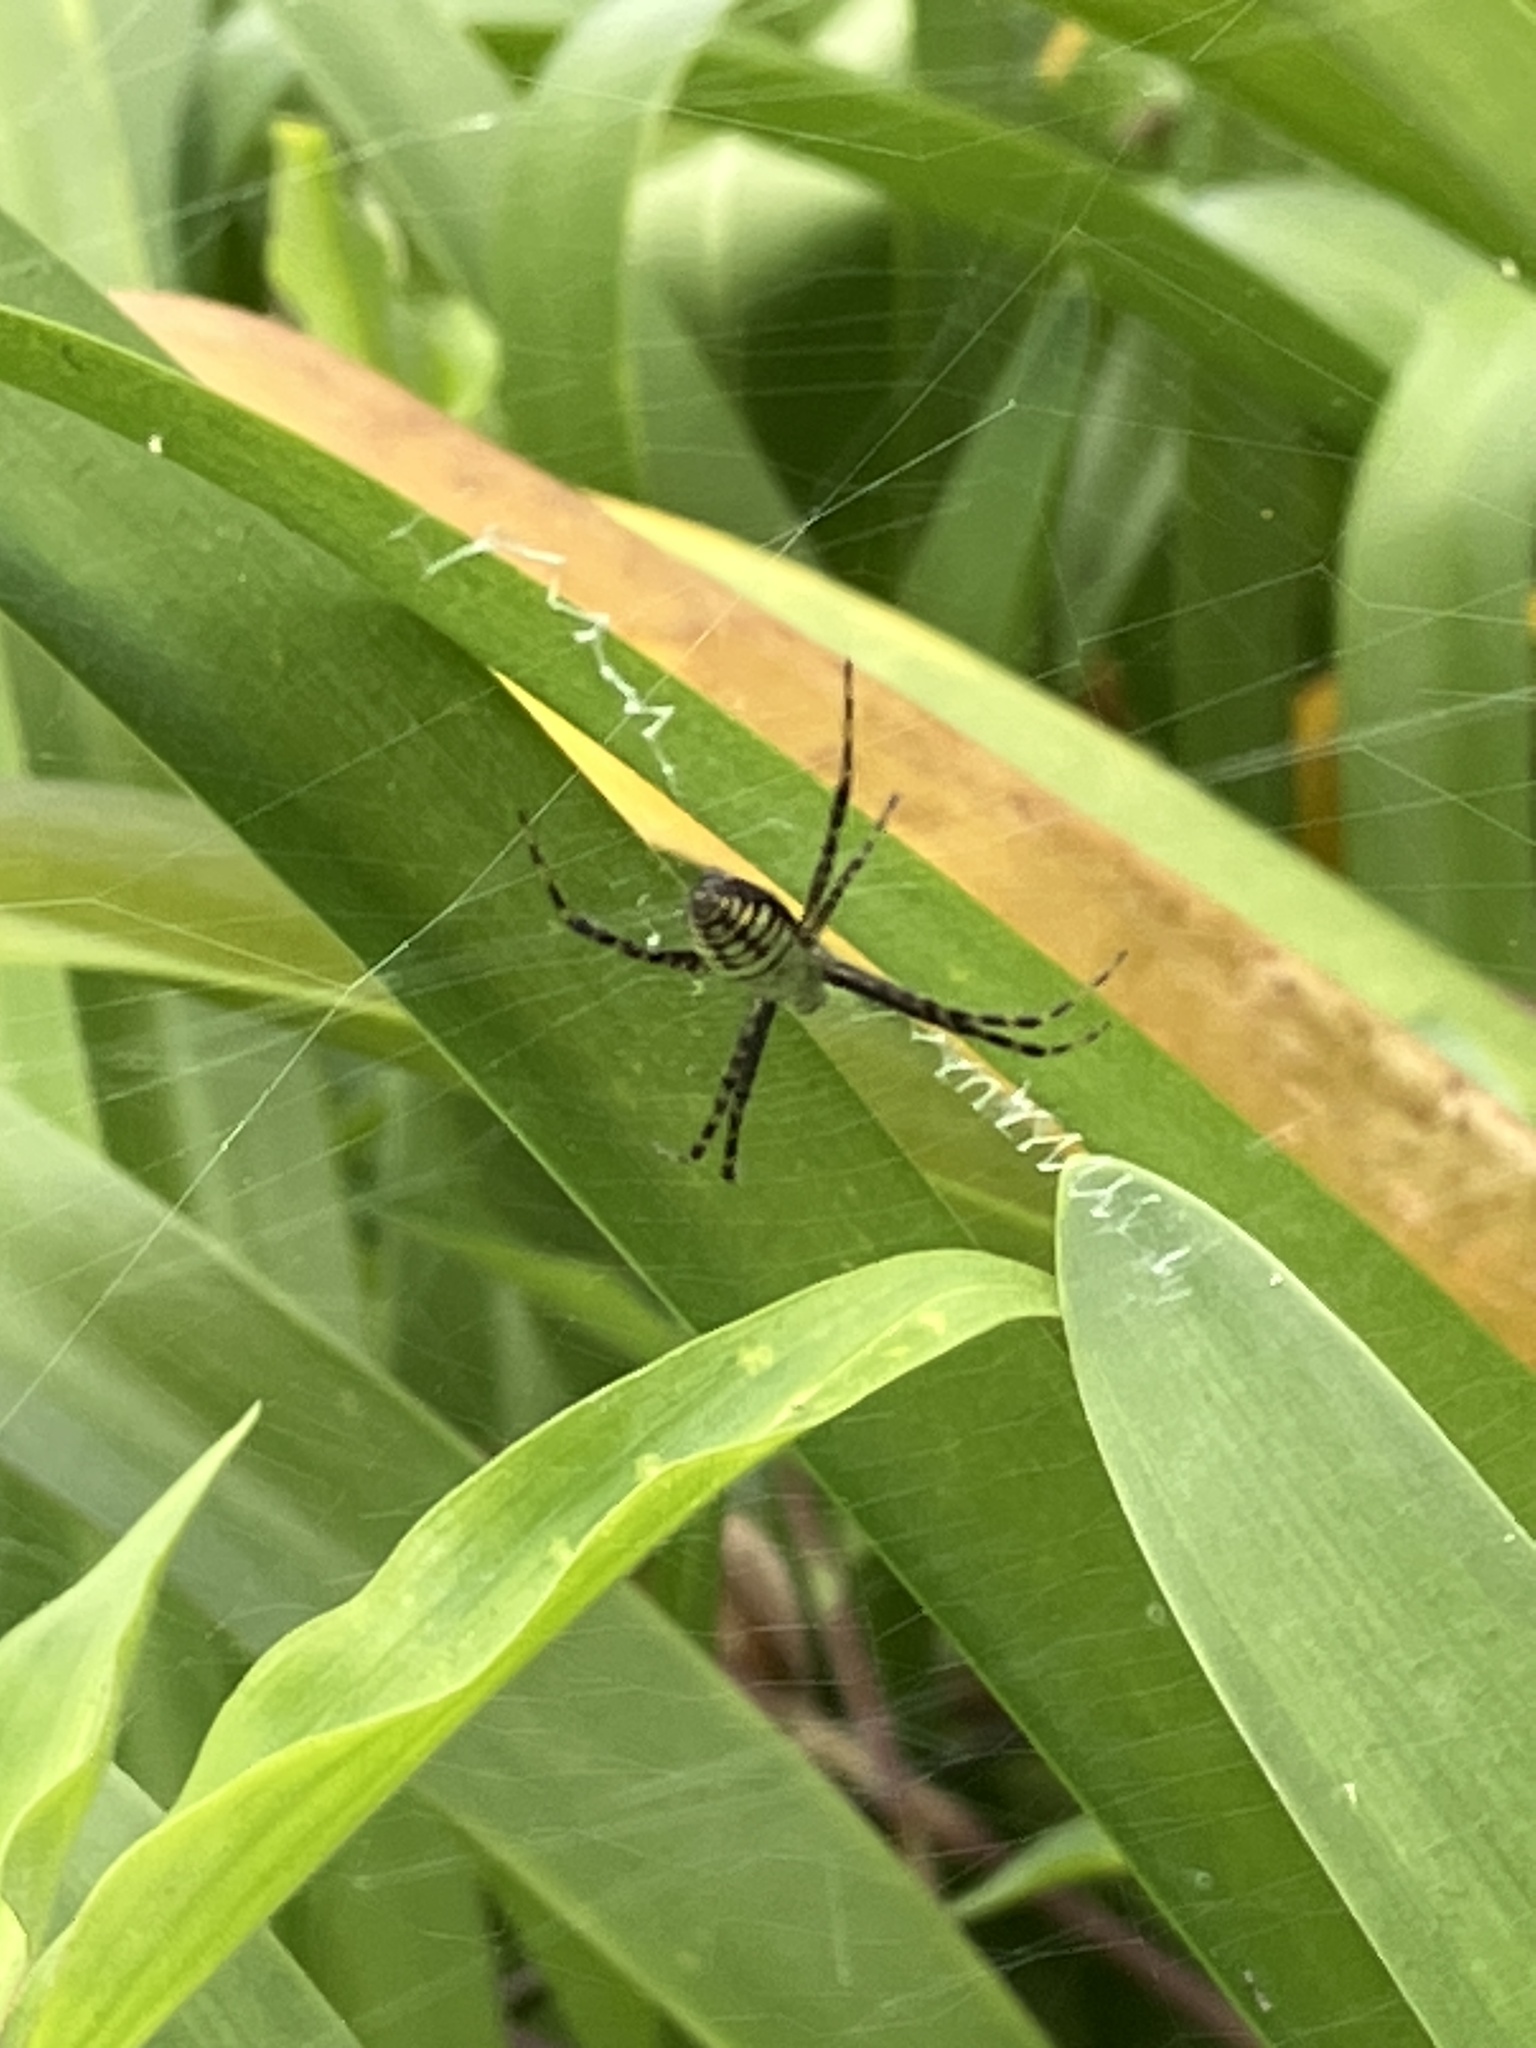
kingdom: Animalia
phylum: Arthropoda
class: Arachnida
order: Araneae
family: Araneidae
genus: Argiope
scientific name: Argiope trifasciata
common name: Banded garden spider
